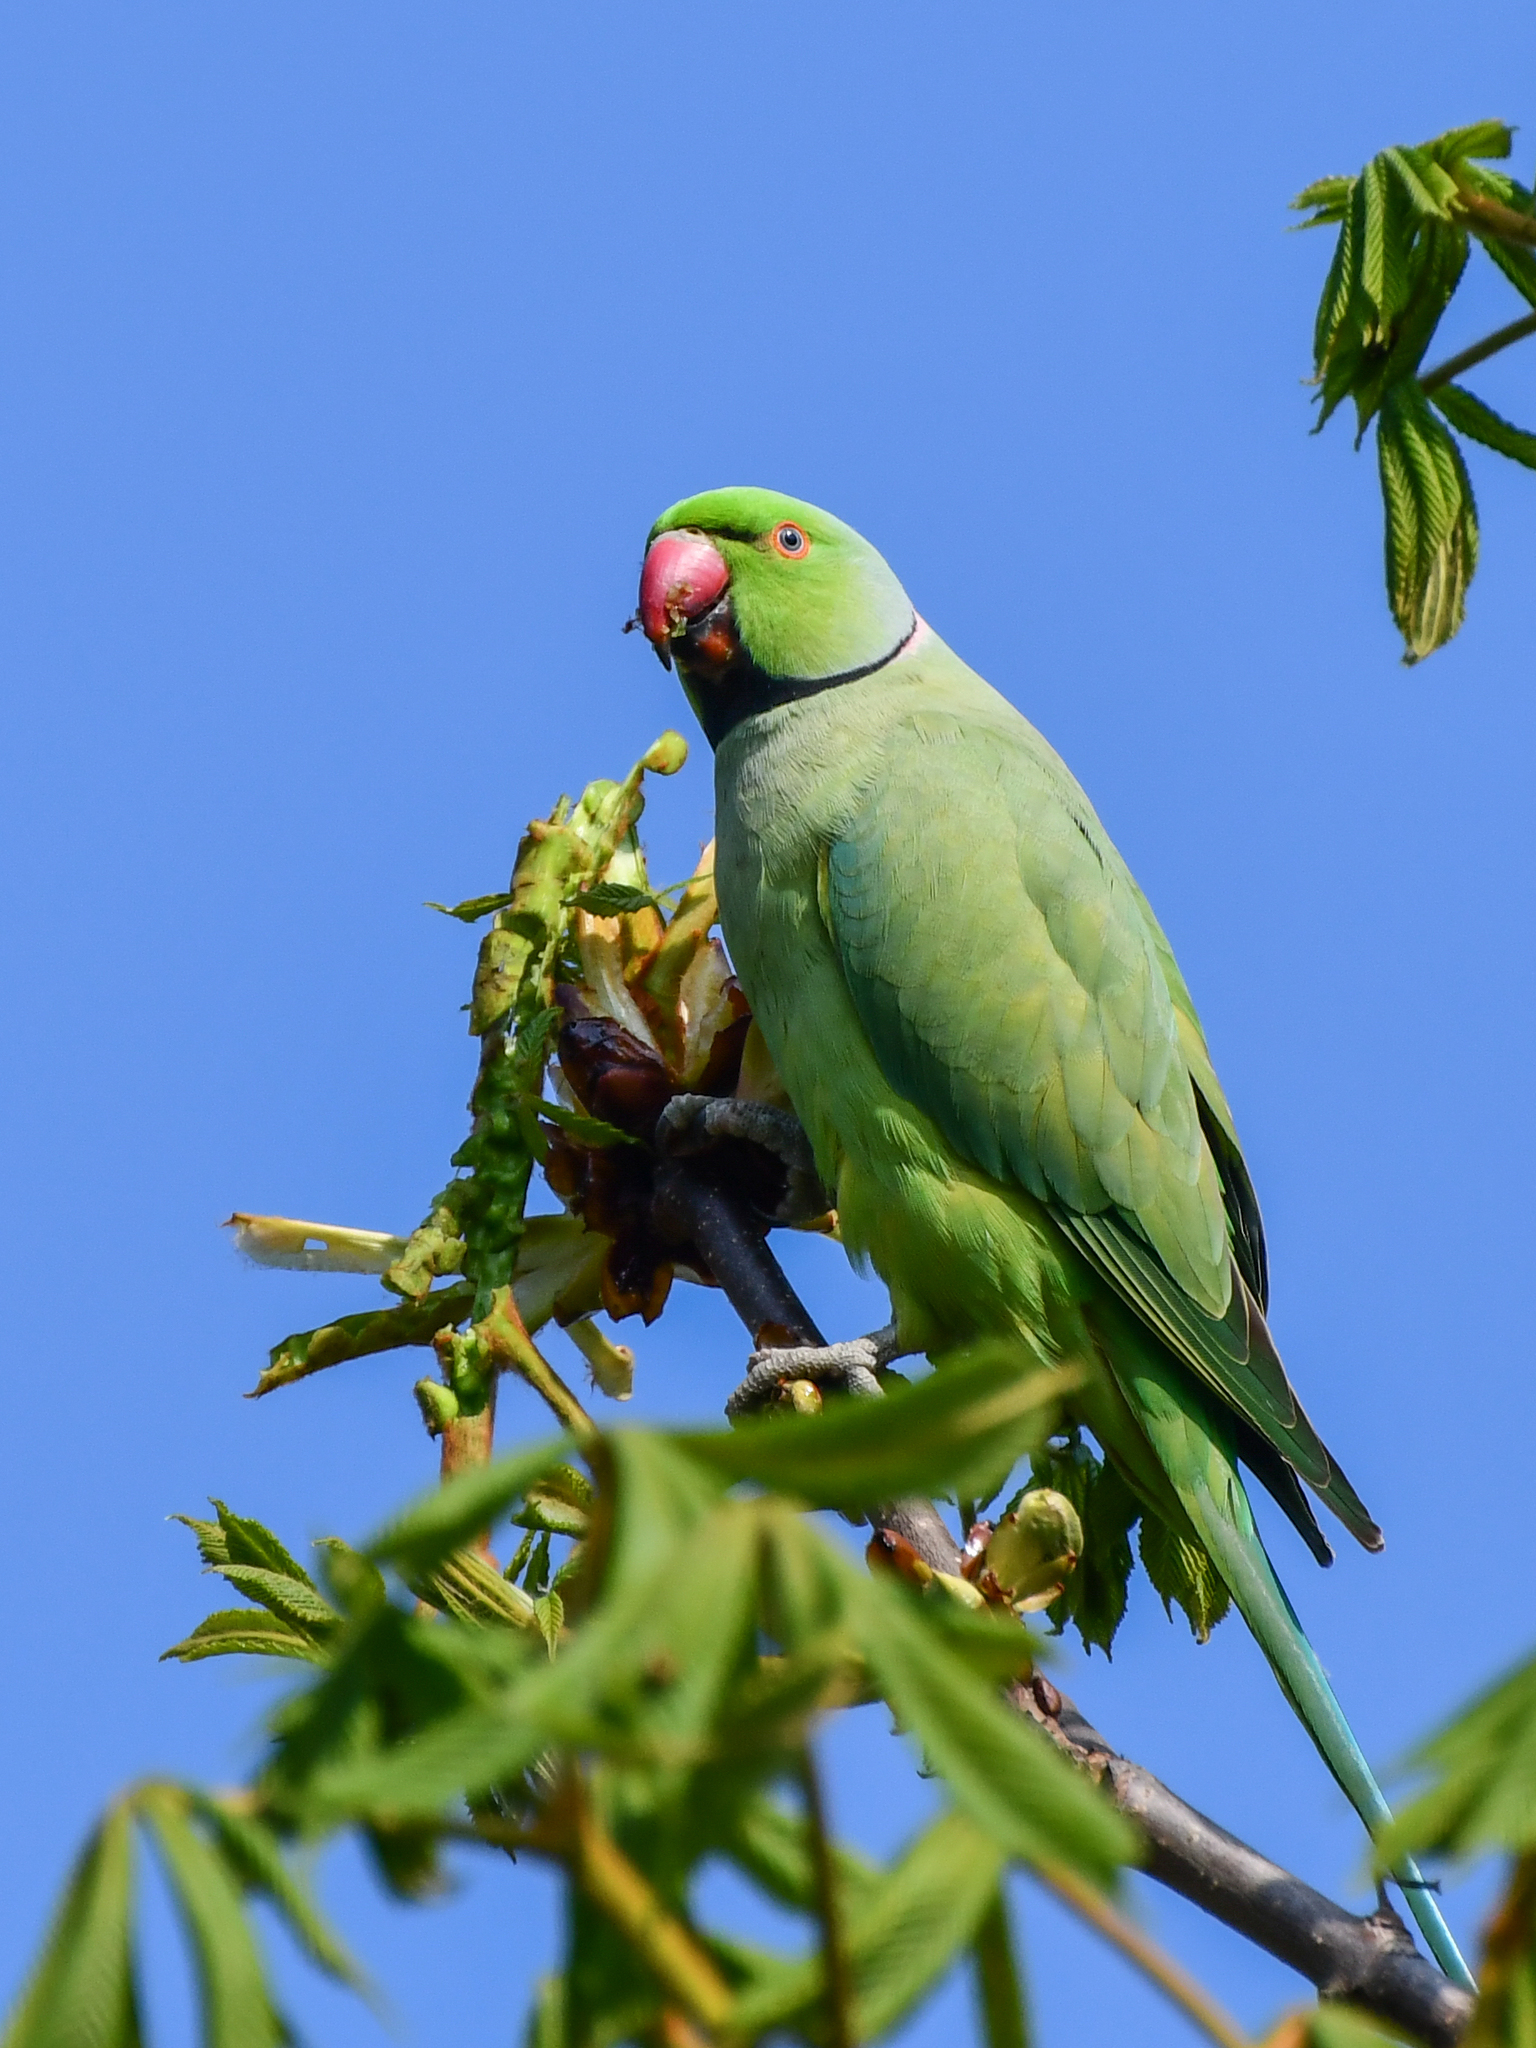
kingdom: Animalia
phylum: Chordata
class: Aves
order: Psittaciformes
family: Psittacidae
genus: Psittacula
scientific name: Psittacula krameri
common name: Rose-ringed parakeet
